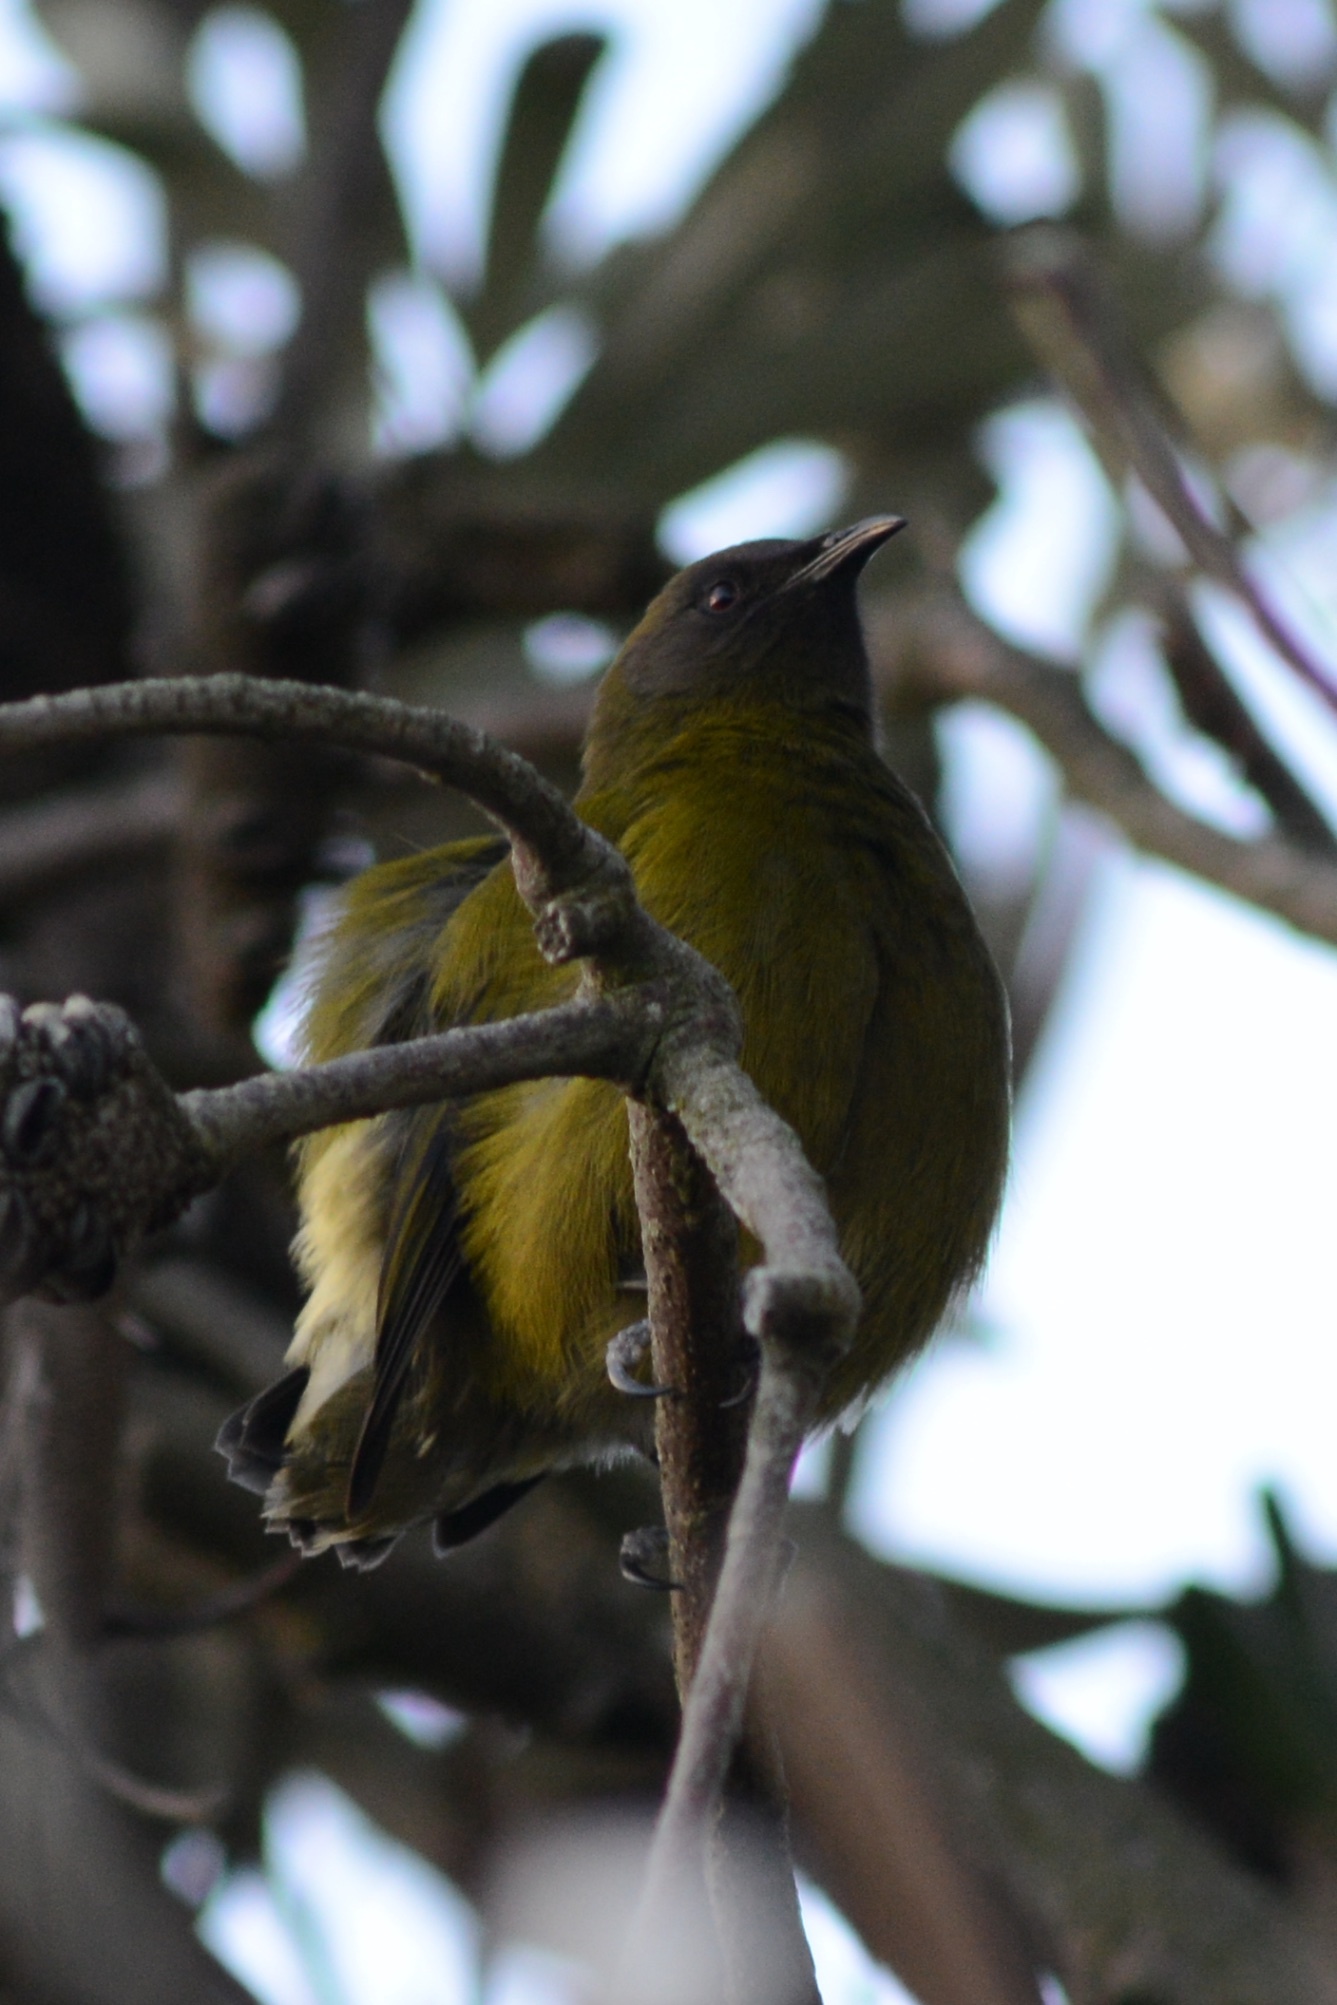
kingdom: Animalia
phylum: Chordata
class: Aves
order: Passeriformes
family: Meliphagidae
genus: Anthornis
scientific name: Anthornis melanura
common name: New zealand bellbird
